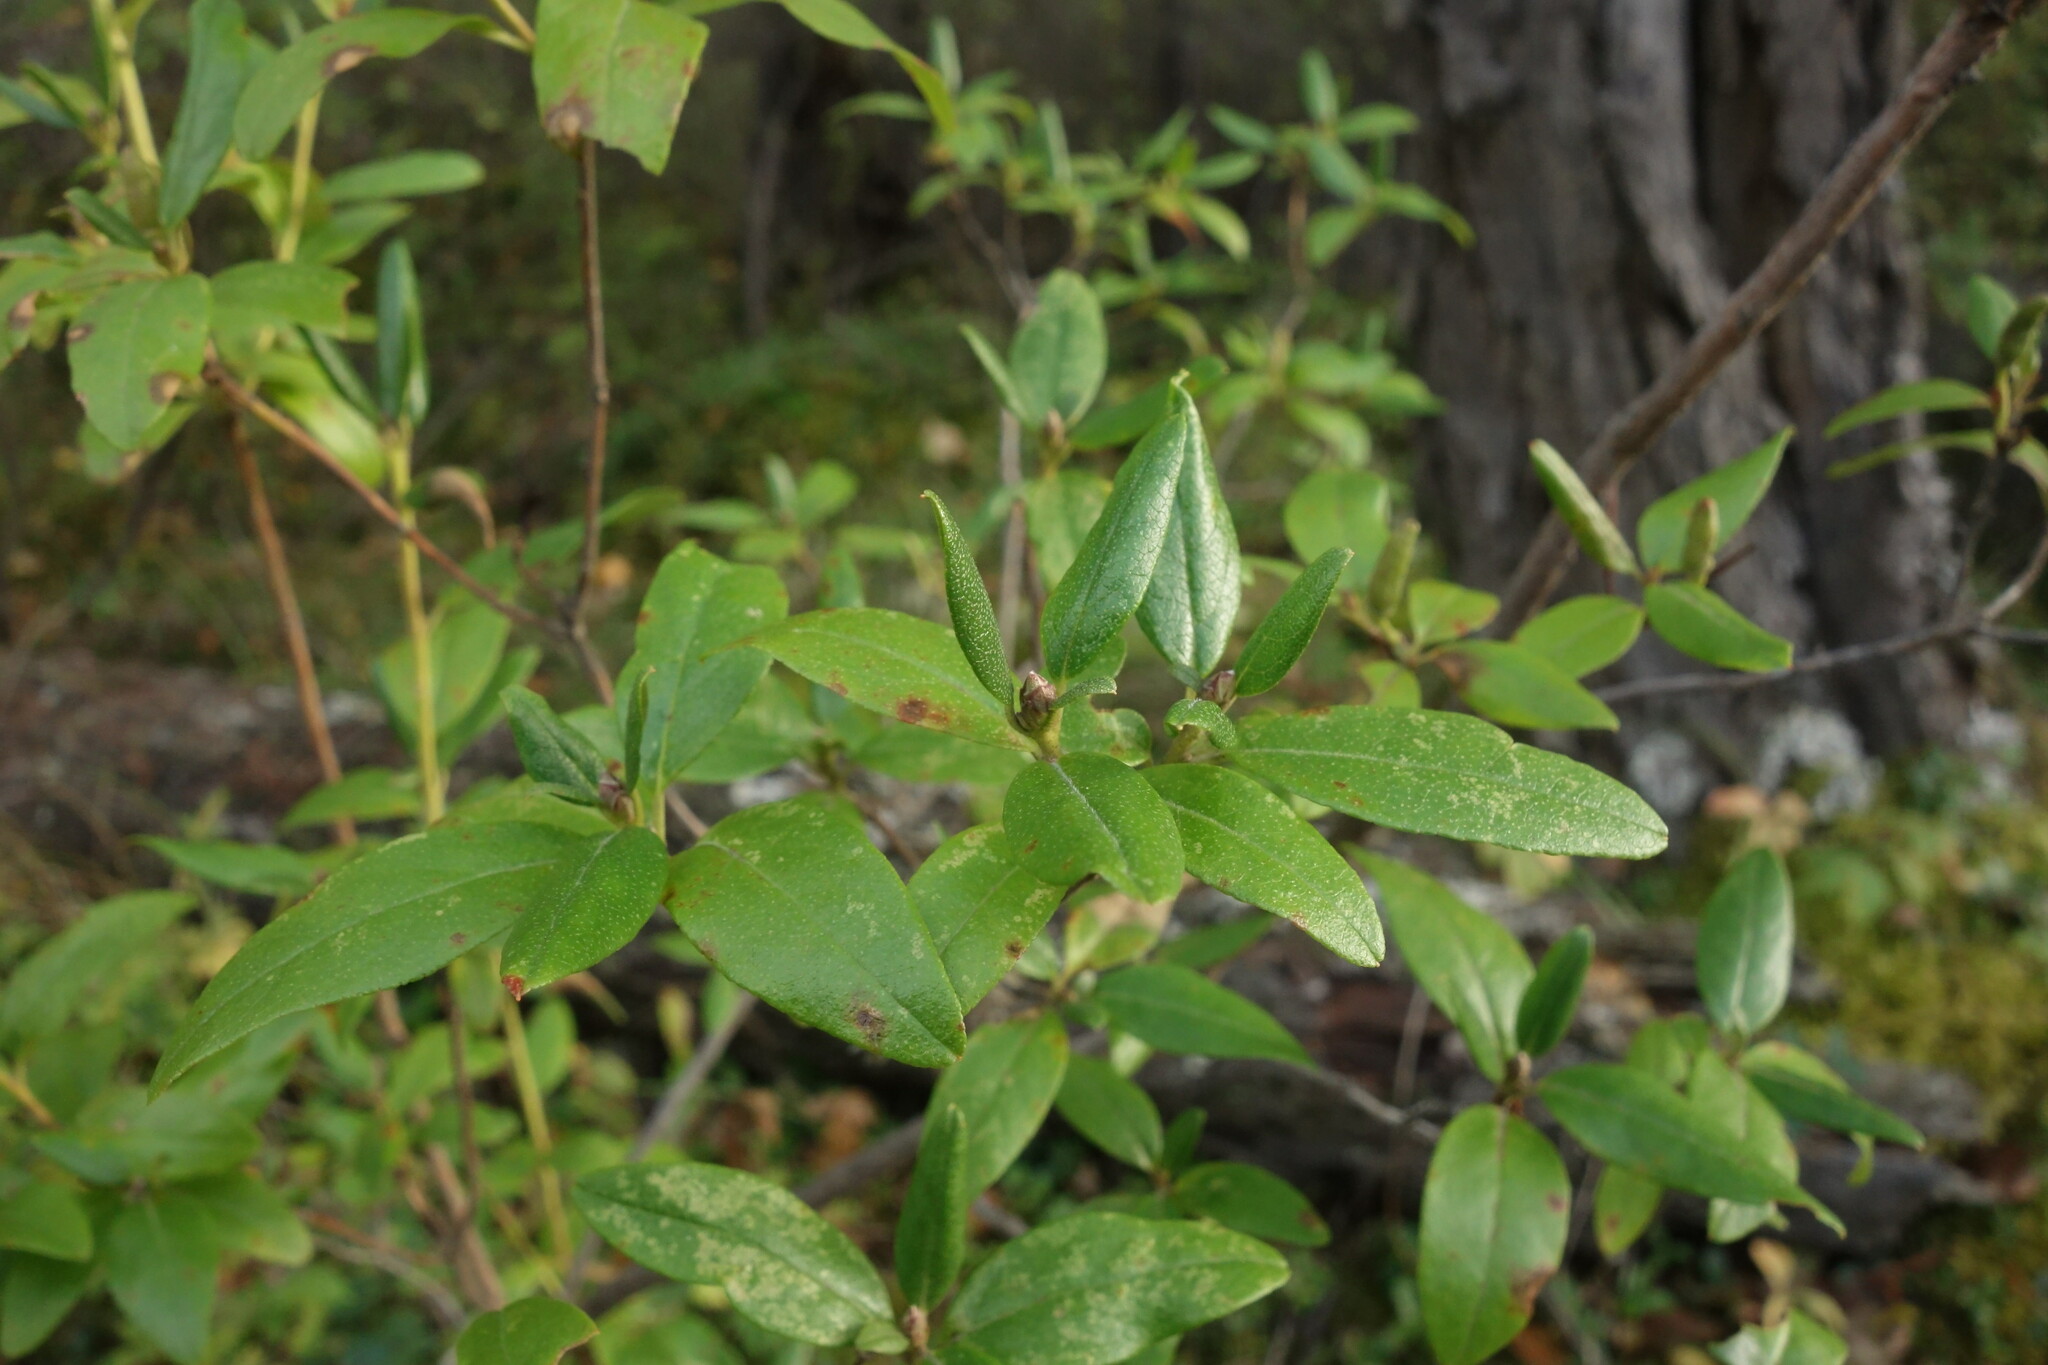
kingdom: Plantae
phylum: Tracheophyta
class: Magnoliopsida
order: Ericales
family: Ericaceae
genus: Rhododendron
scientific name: Rhododendron dauricum
